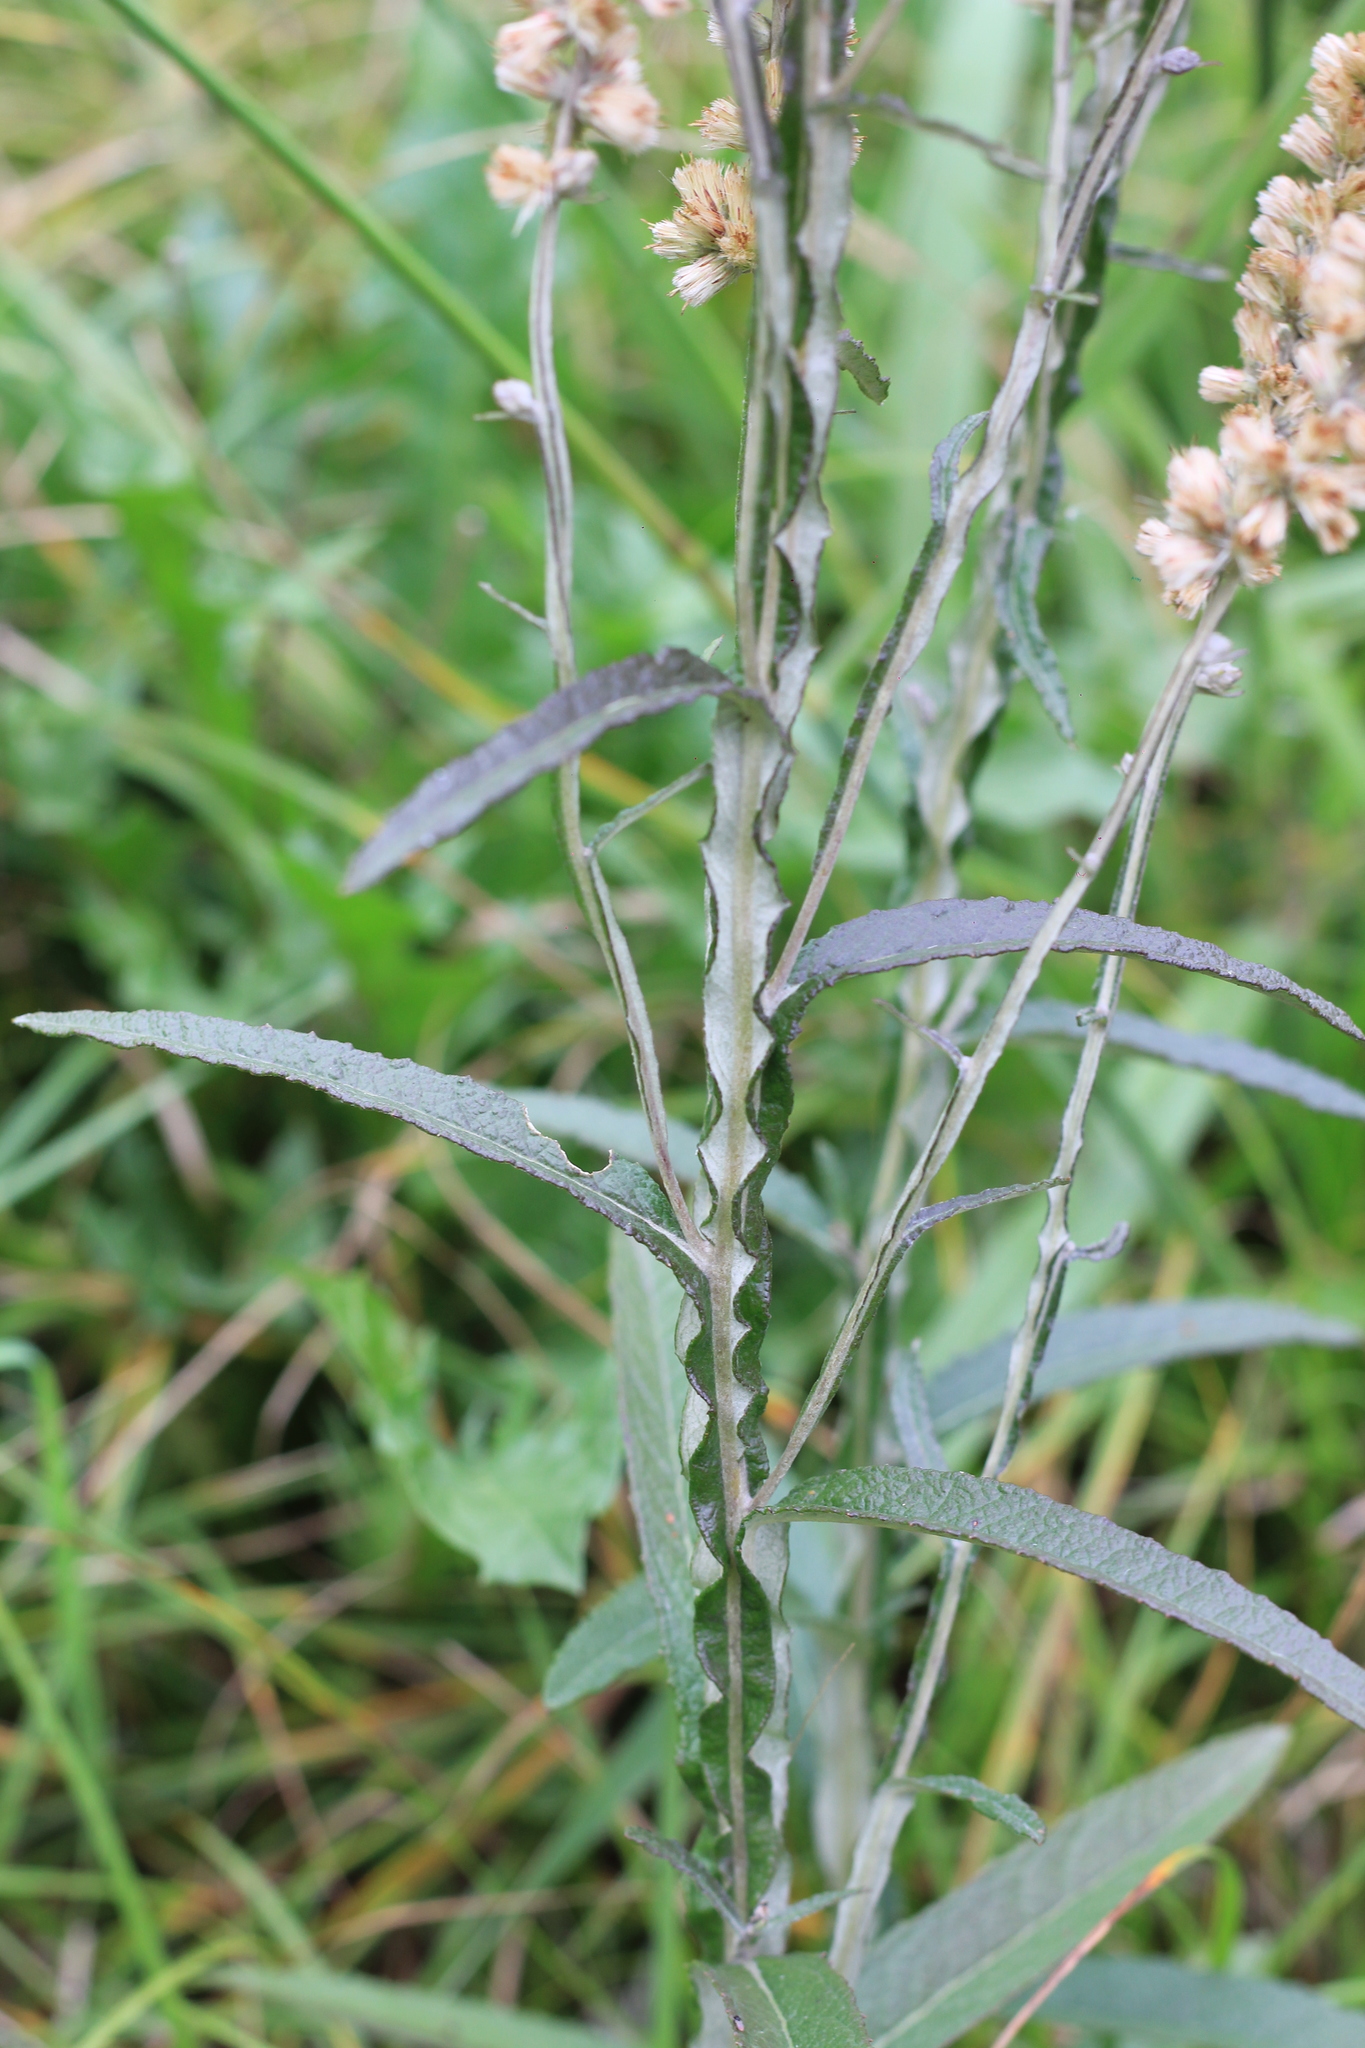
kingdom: Plantae
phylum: Tracheophyta
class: Magnoliopsida
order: Asterales
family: Asteraceae
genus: Pterocaulon
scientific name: Pterocaulon cordobense
